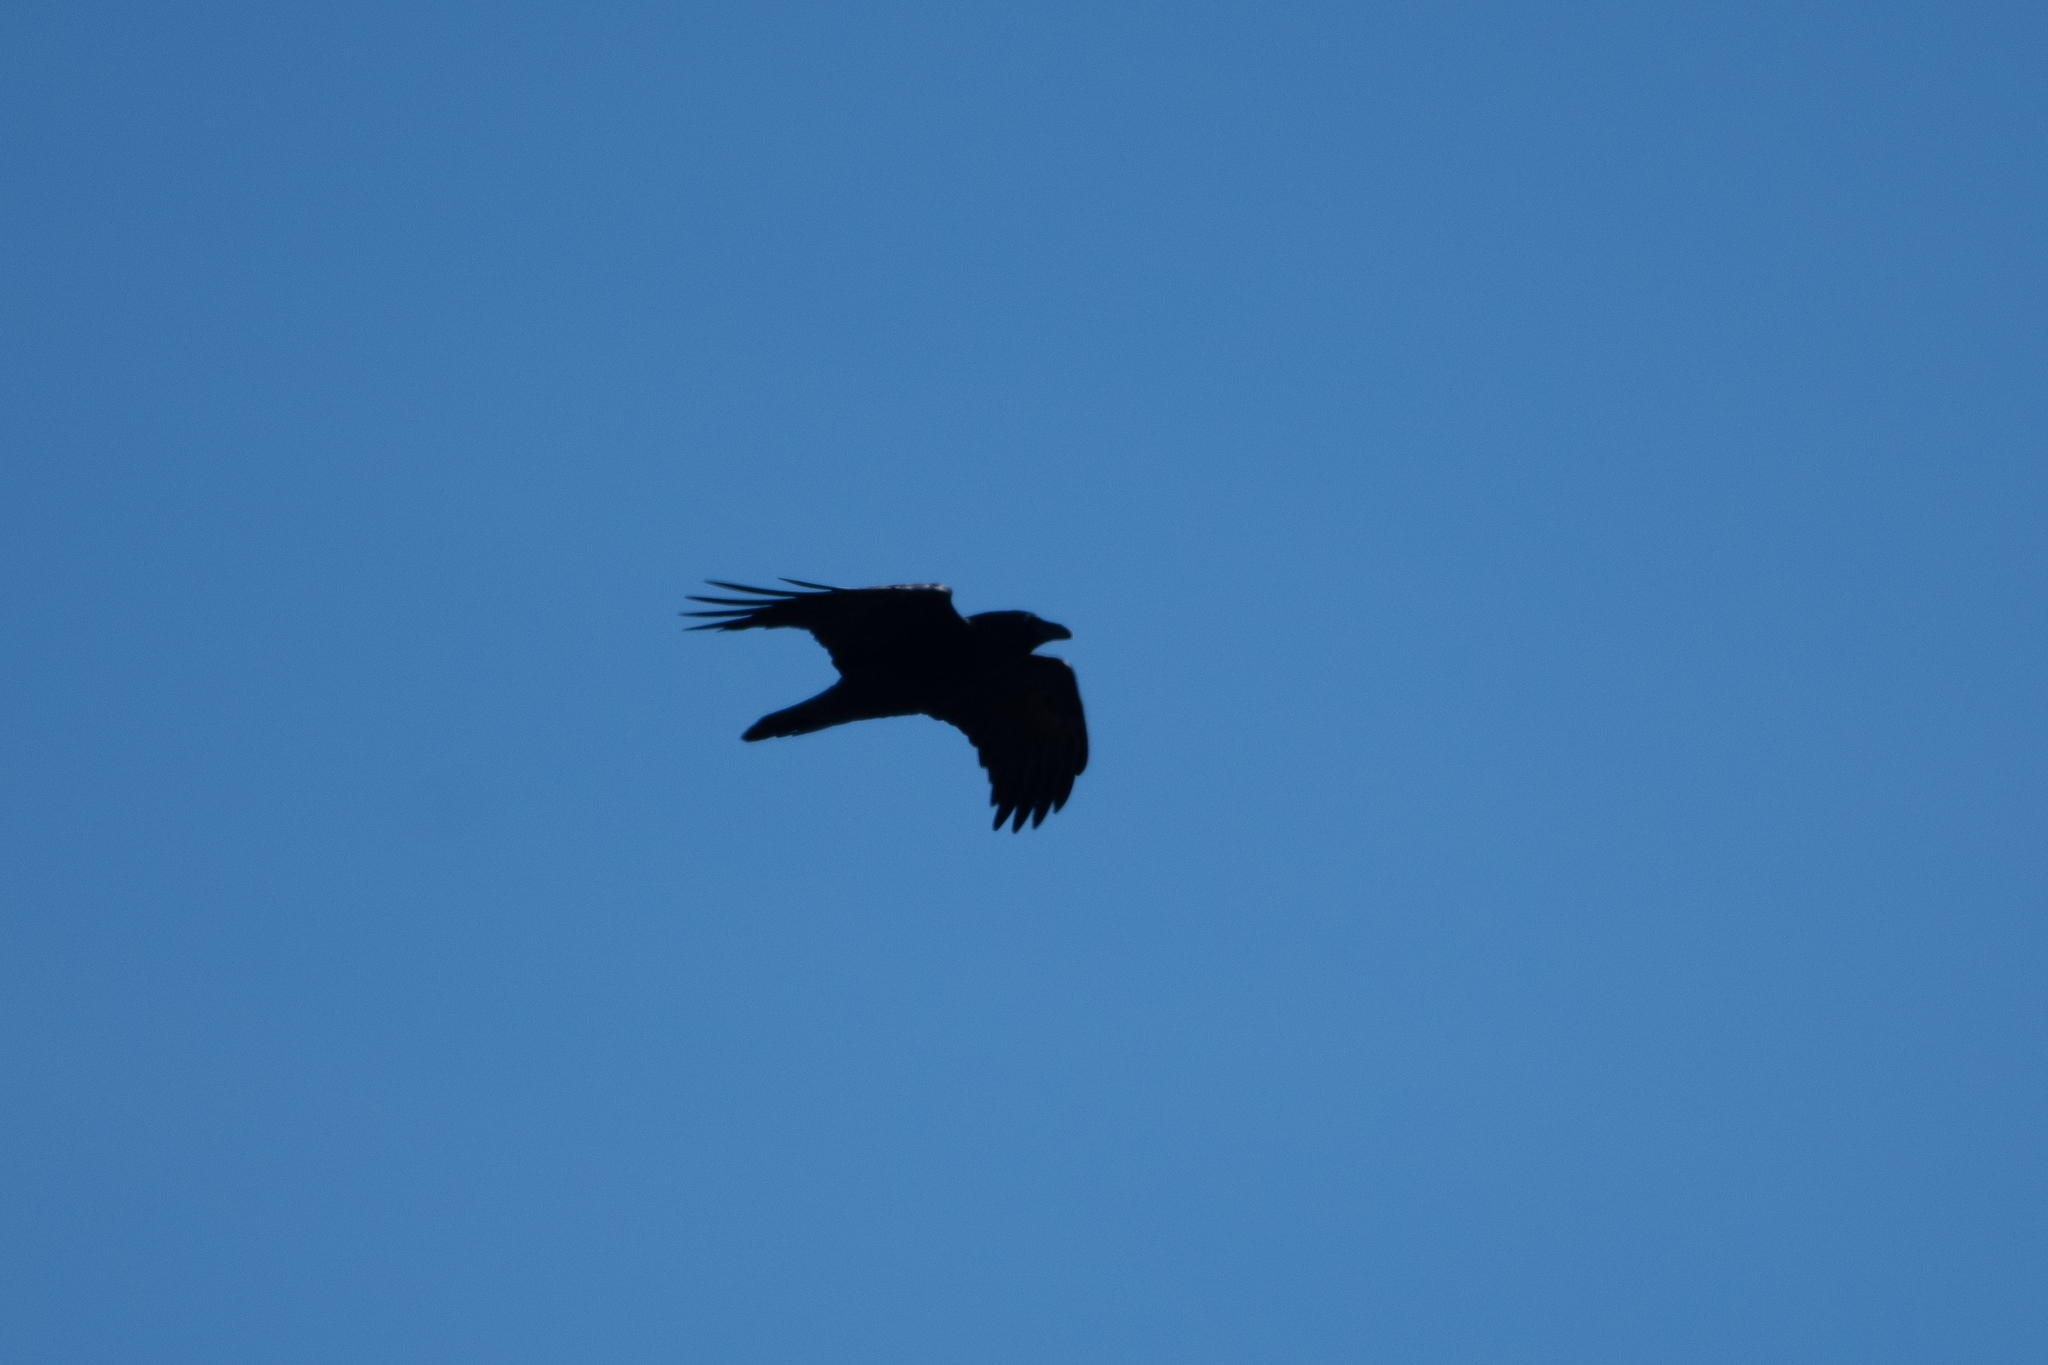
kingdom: Animalia
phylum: Chordata
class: Aves
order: Passeriformes
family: Corvidae
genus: Corvus
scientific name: Corvus corax
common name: Common raven
